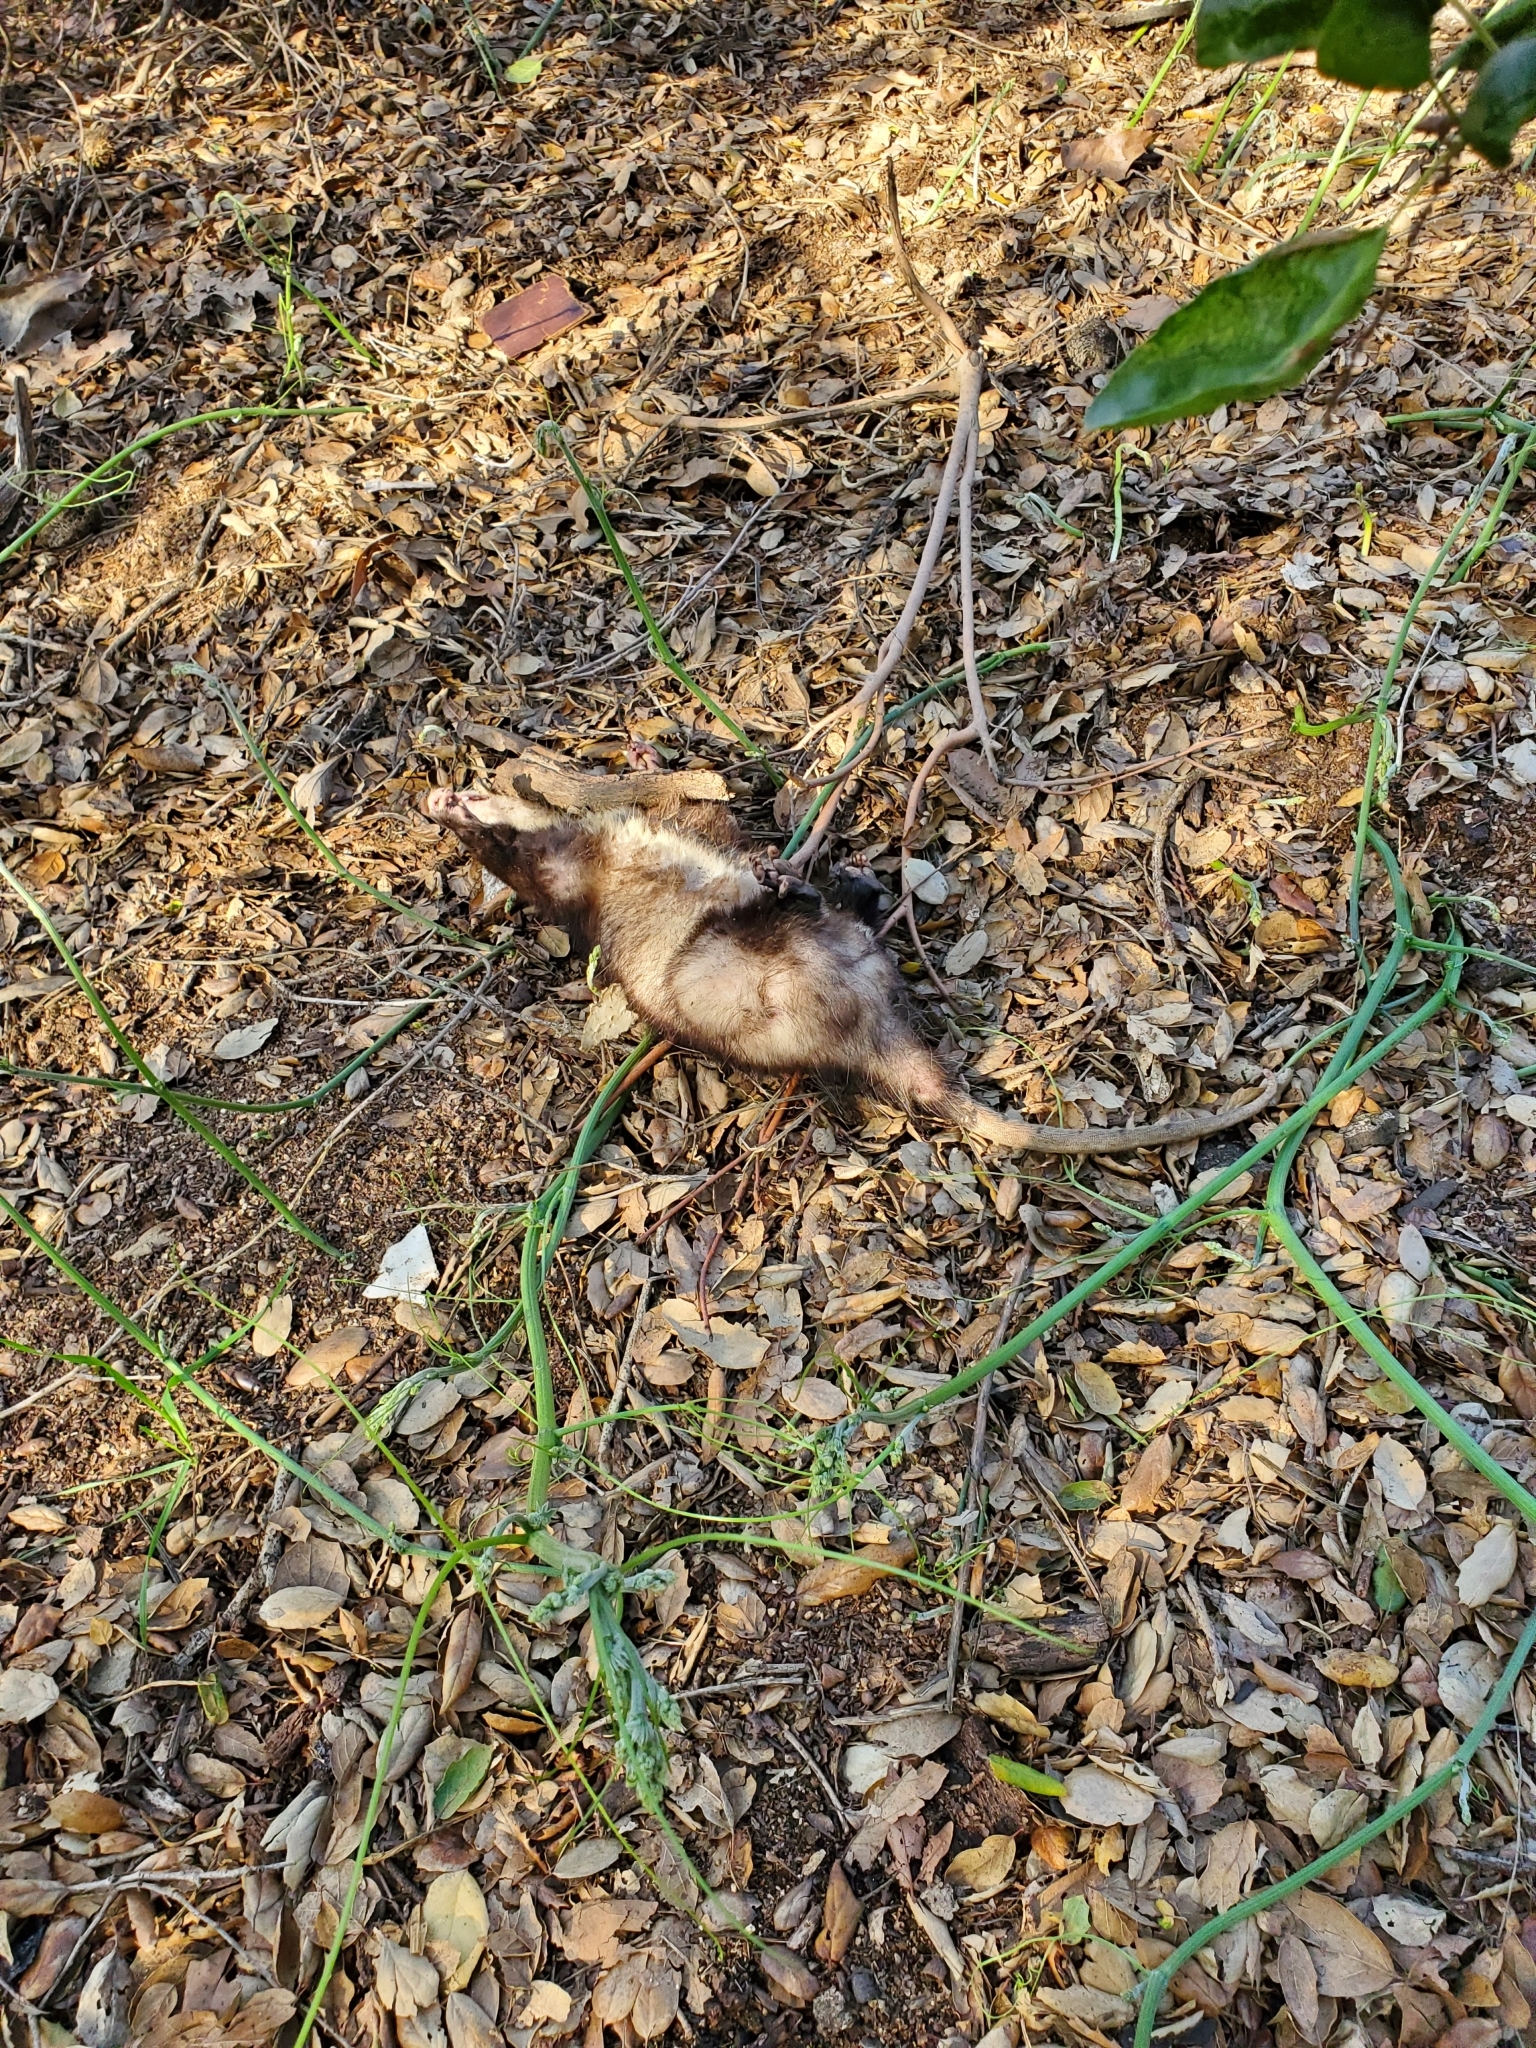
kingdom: Animalia
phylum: Chordata
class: Mammalia
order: Didelphimorphia
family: Didelphidae
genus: Didelphis
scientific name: Didelphis virginiana
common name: Virginia opossum
